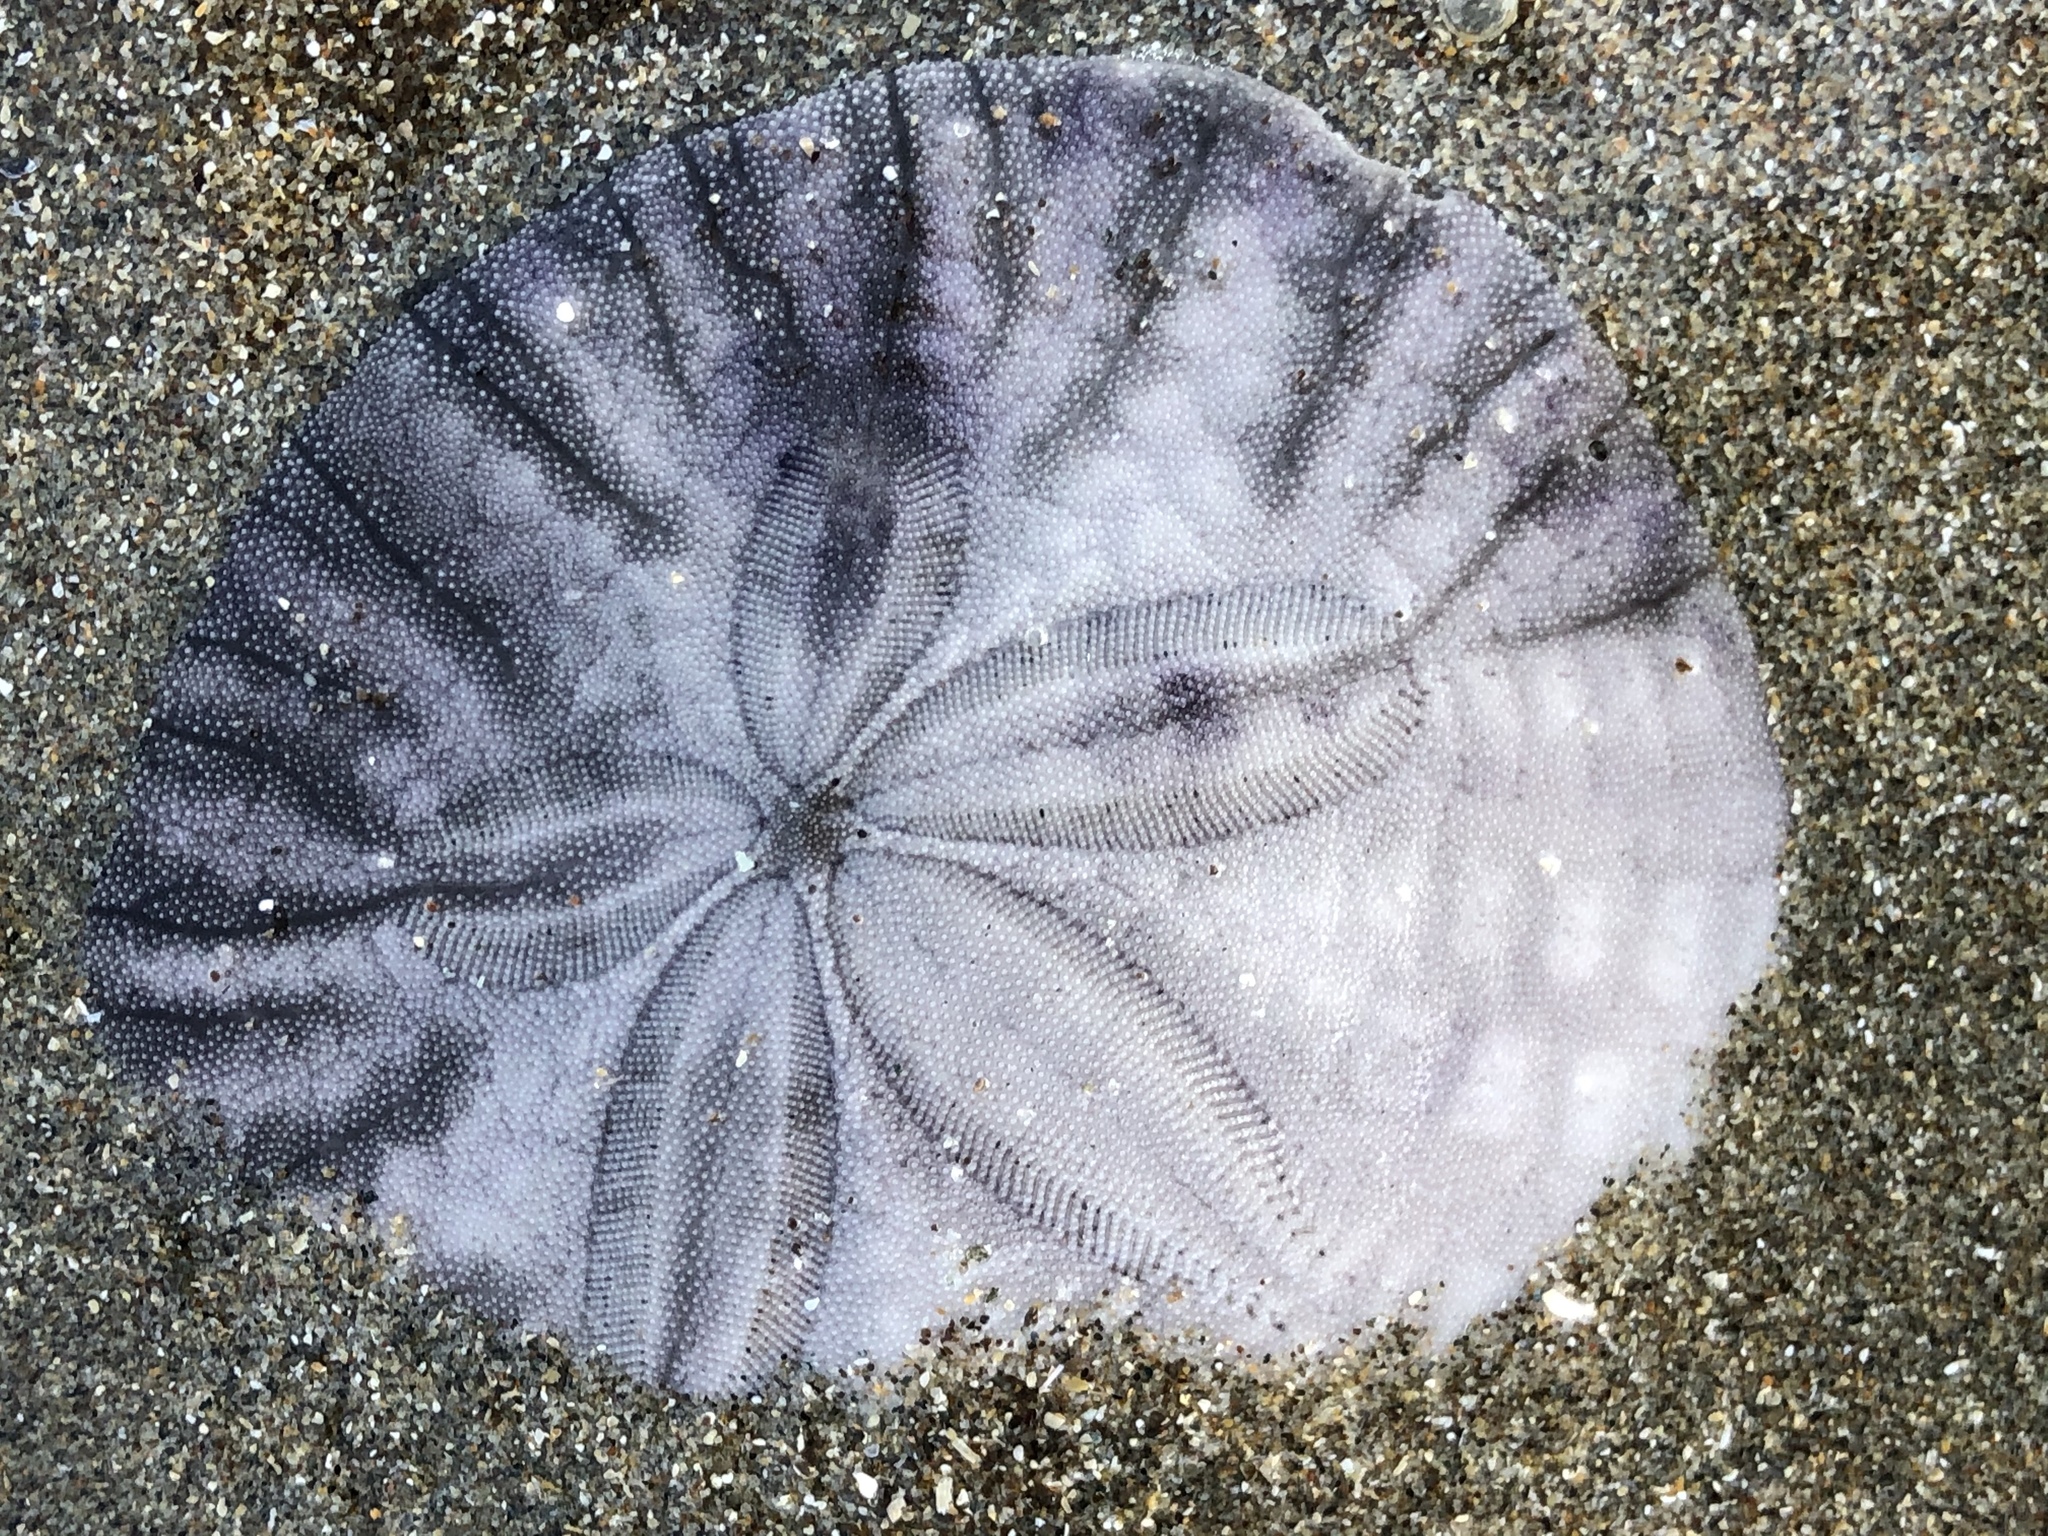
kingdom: Animalia
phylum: Echinodermata
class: Echinoidea
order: Echinolampadacea
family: Dendrasteridae
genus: Dendraster
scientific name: Dendraster excentricus
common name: Eccentric sand dollar sea urchin
